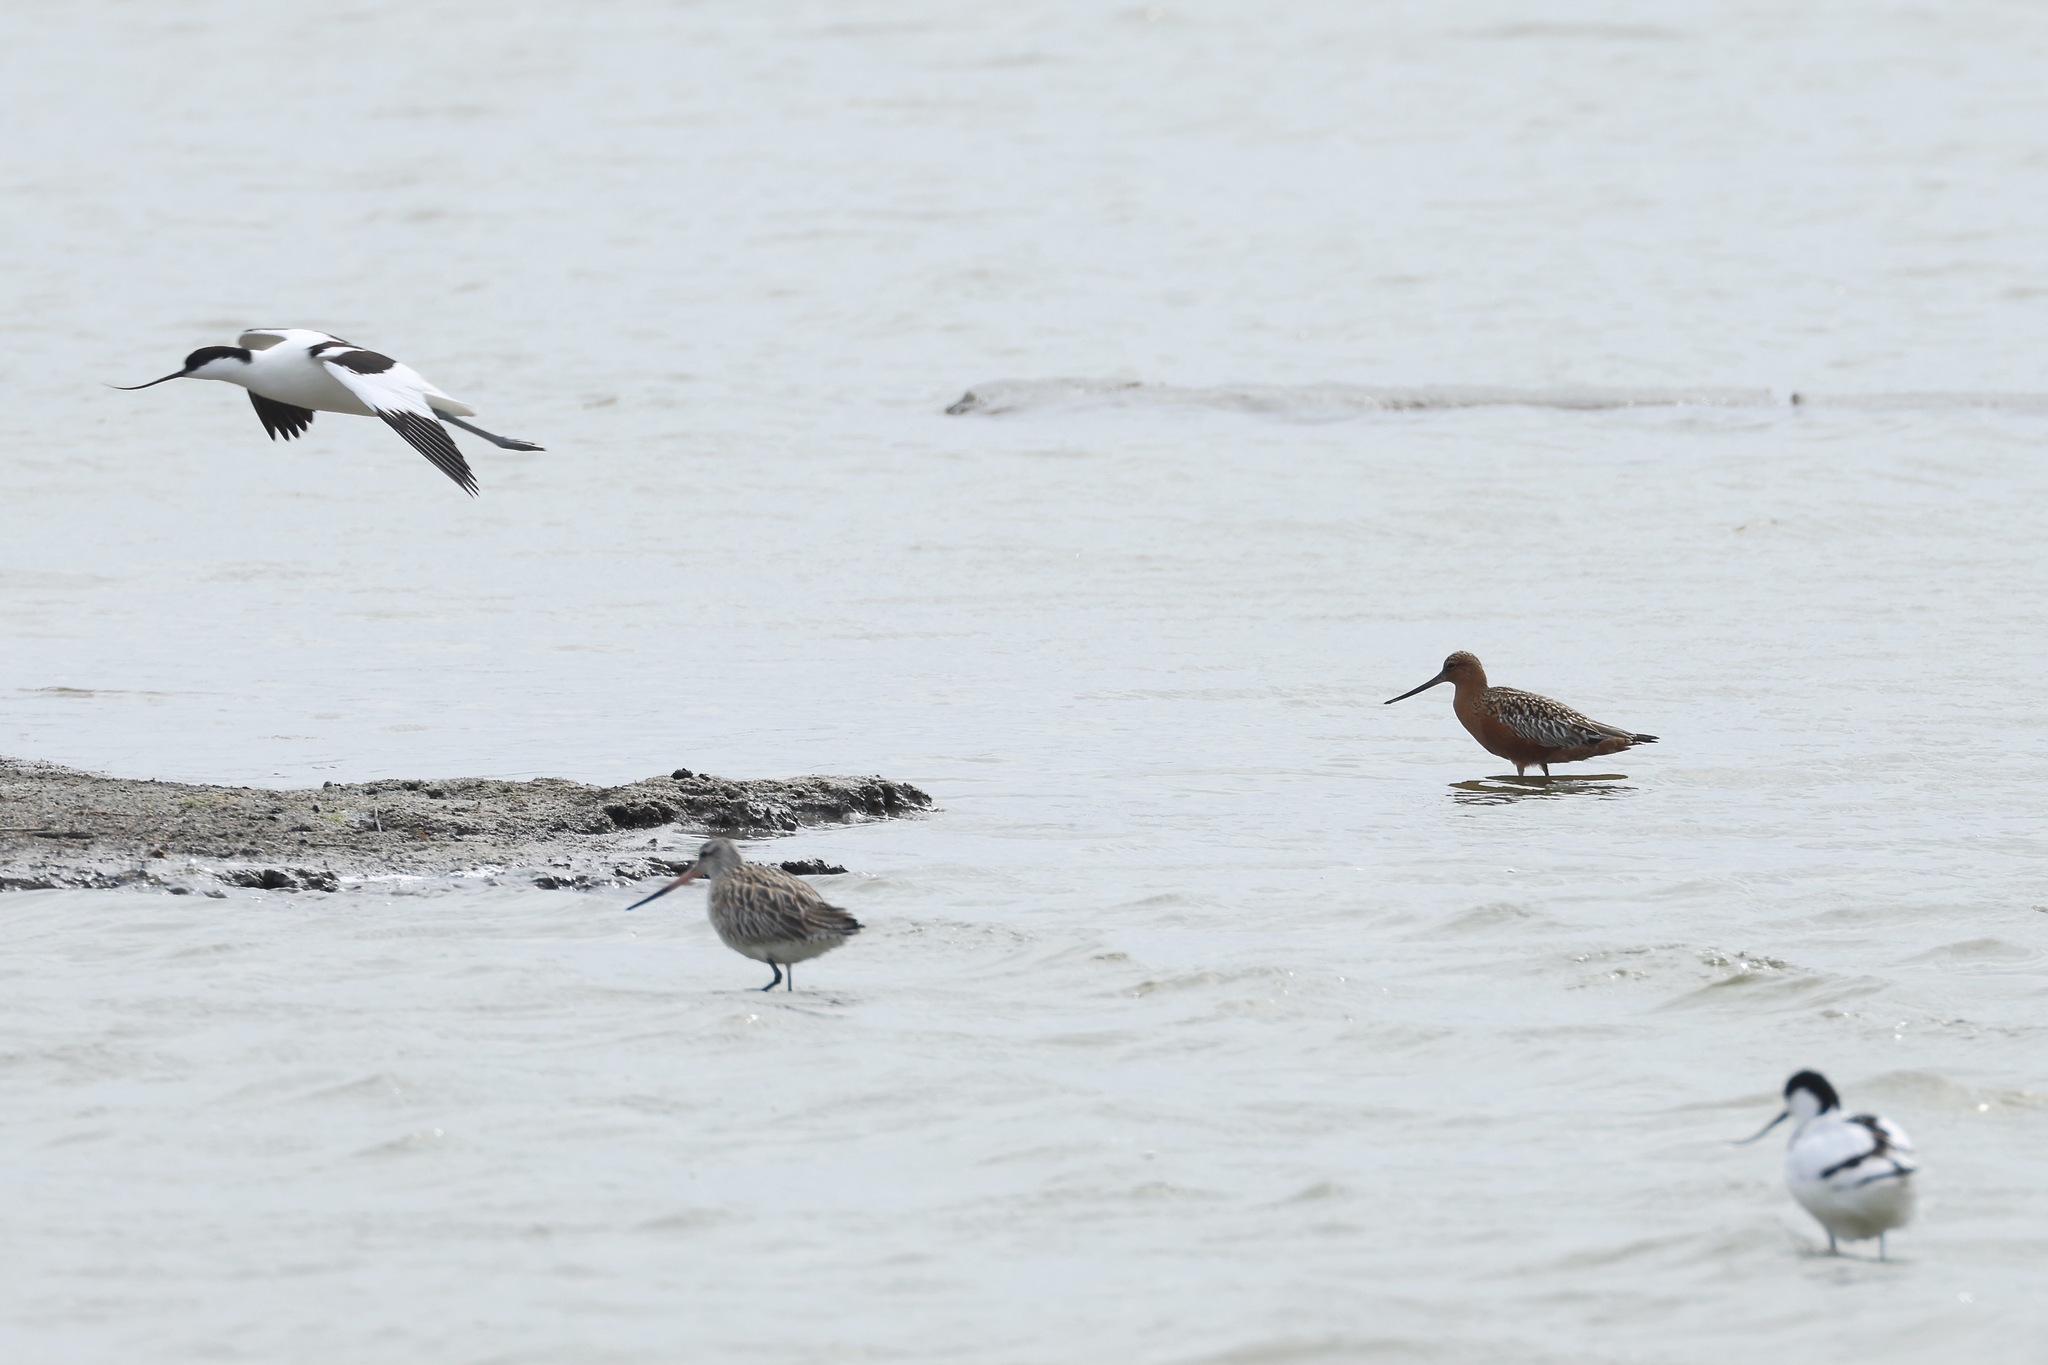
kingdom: Animalia
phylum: Chordata
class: Aves
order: Charadriiformes
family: Scolopacidae
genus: Limosa
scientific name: Limosa lapponica
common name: Bar-tailed godwit
